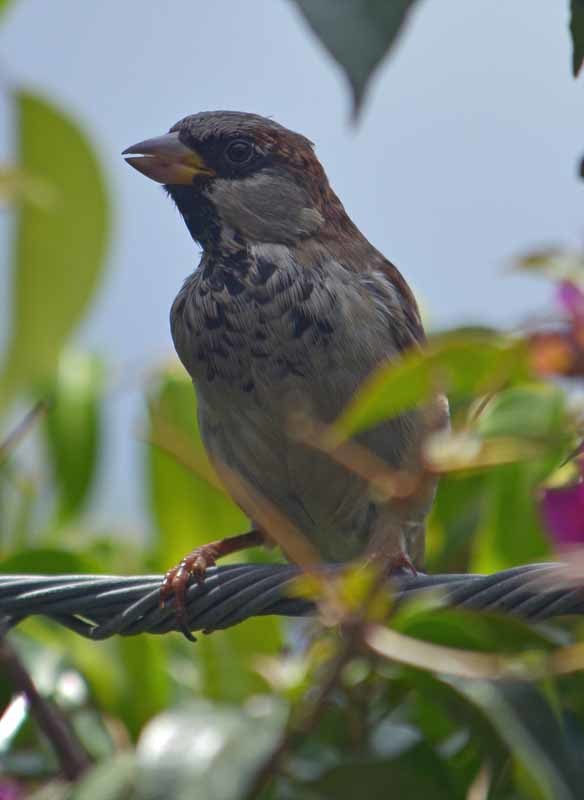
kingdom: Animalia
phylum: Chordata
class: Aves
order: Passeriformes
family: Passeridae
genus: Passer
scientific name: Passer domesticus
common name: House sparrow
